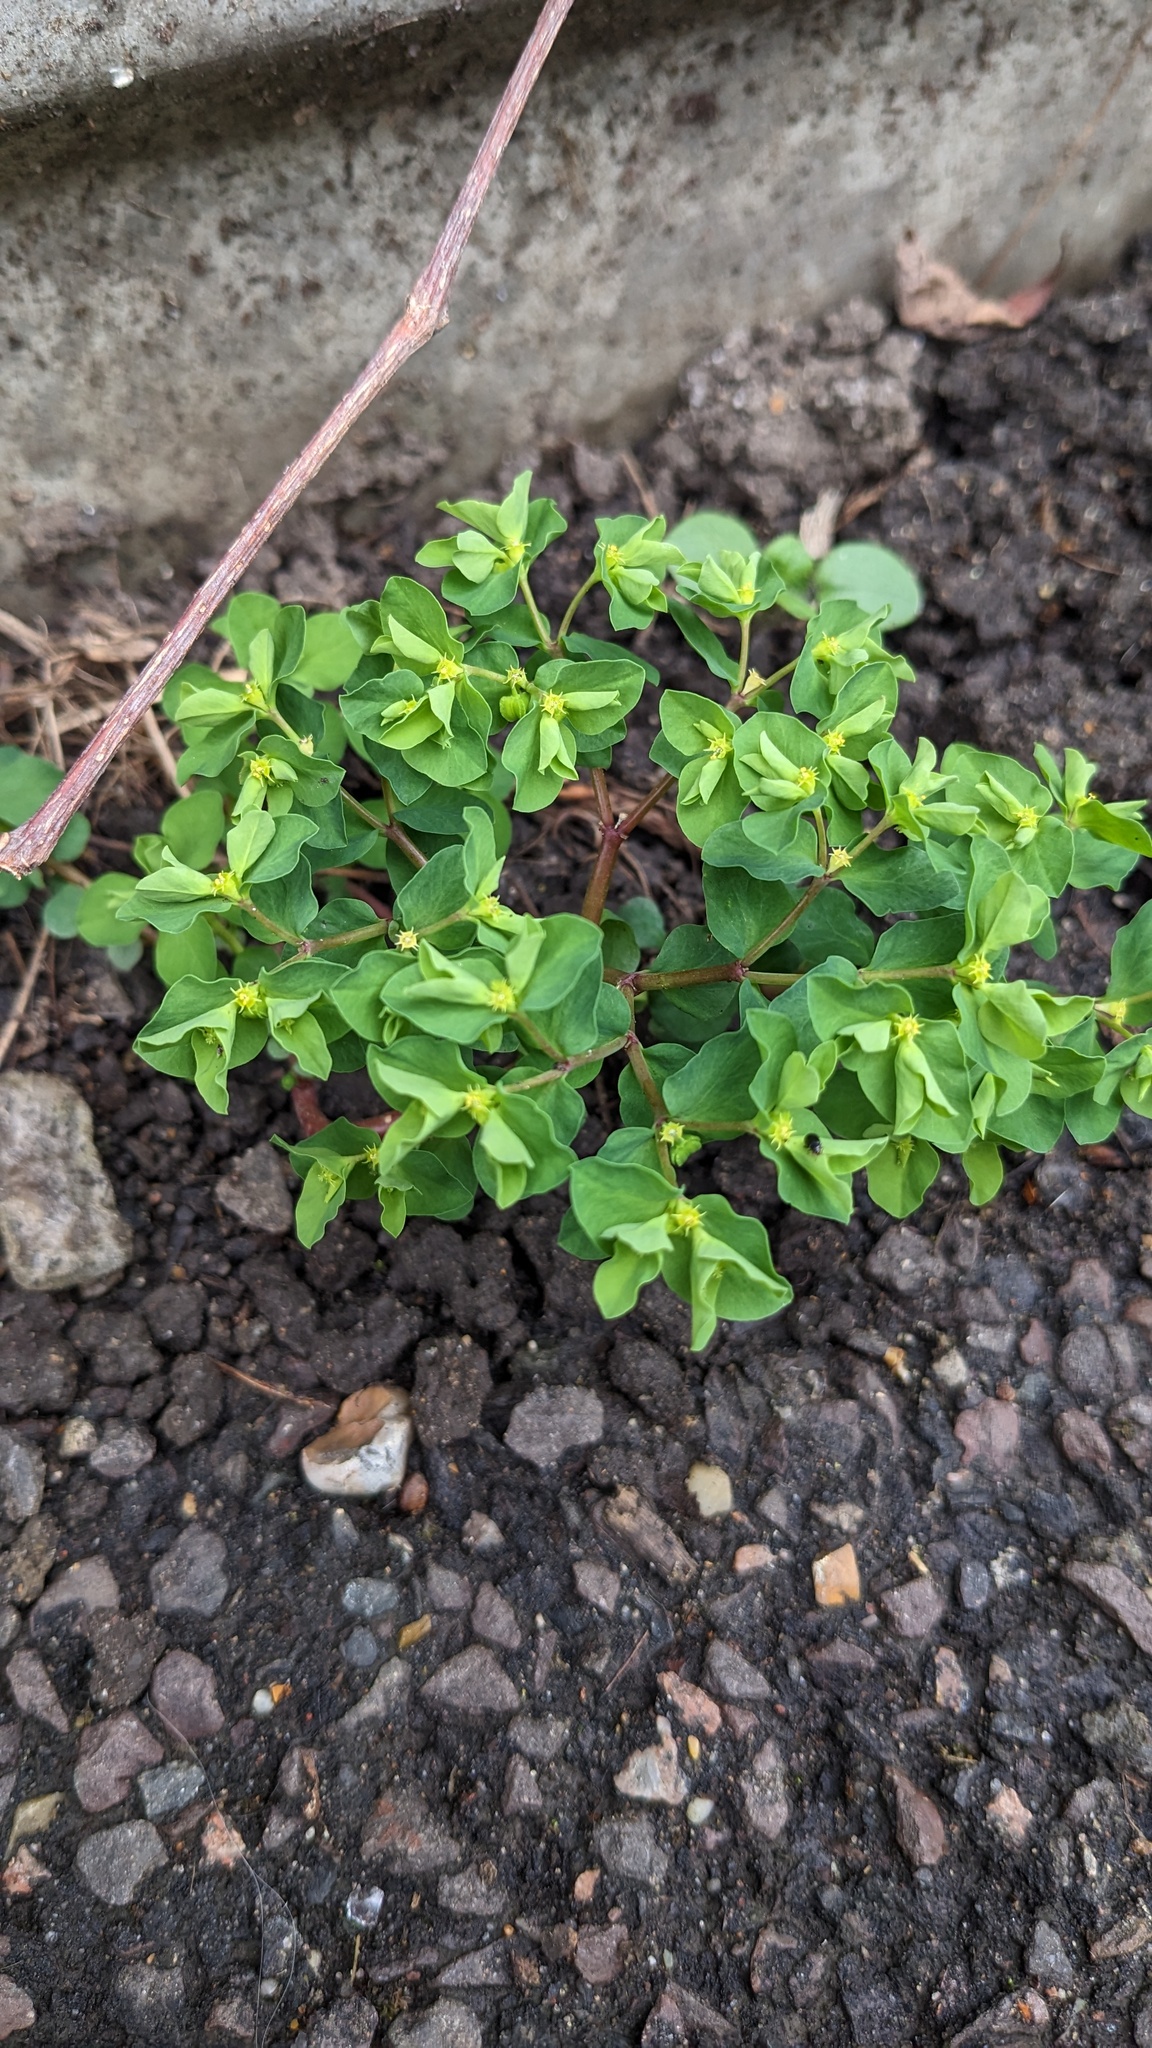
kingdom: Plantae
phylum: Tracheophyta
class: Magnoliopsida
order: Malpighiales
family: Euphorbiaceae
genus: Euphorbia
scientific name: Euphorbia peplus
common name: Petty spurge
